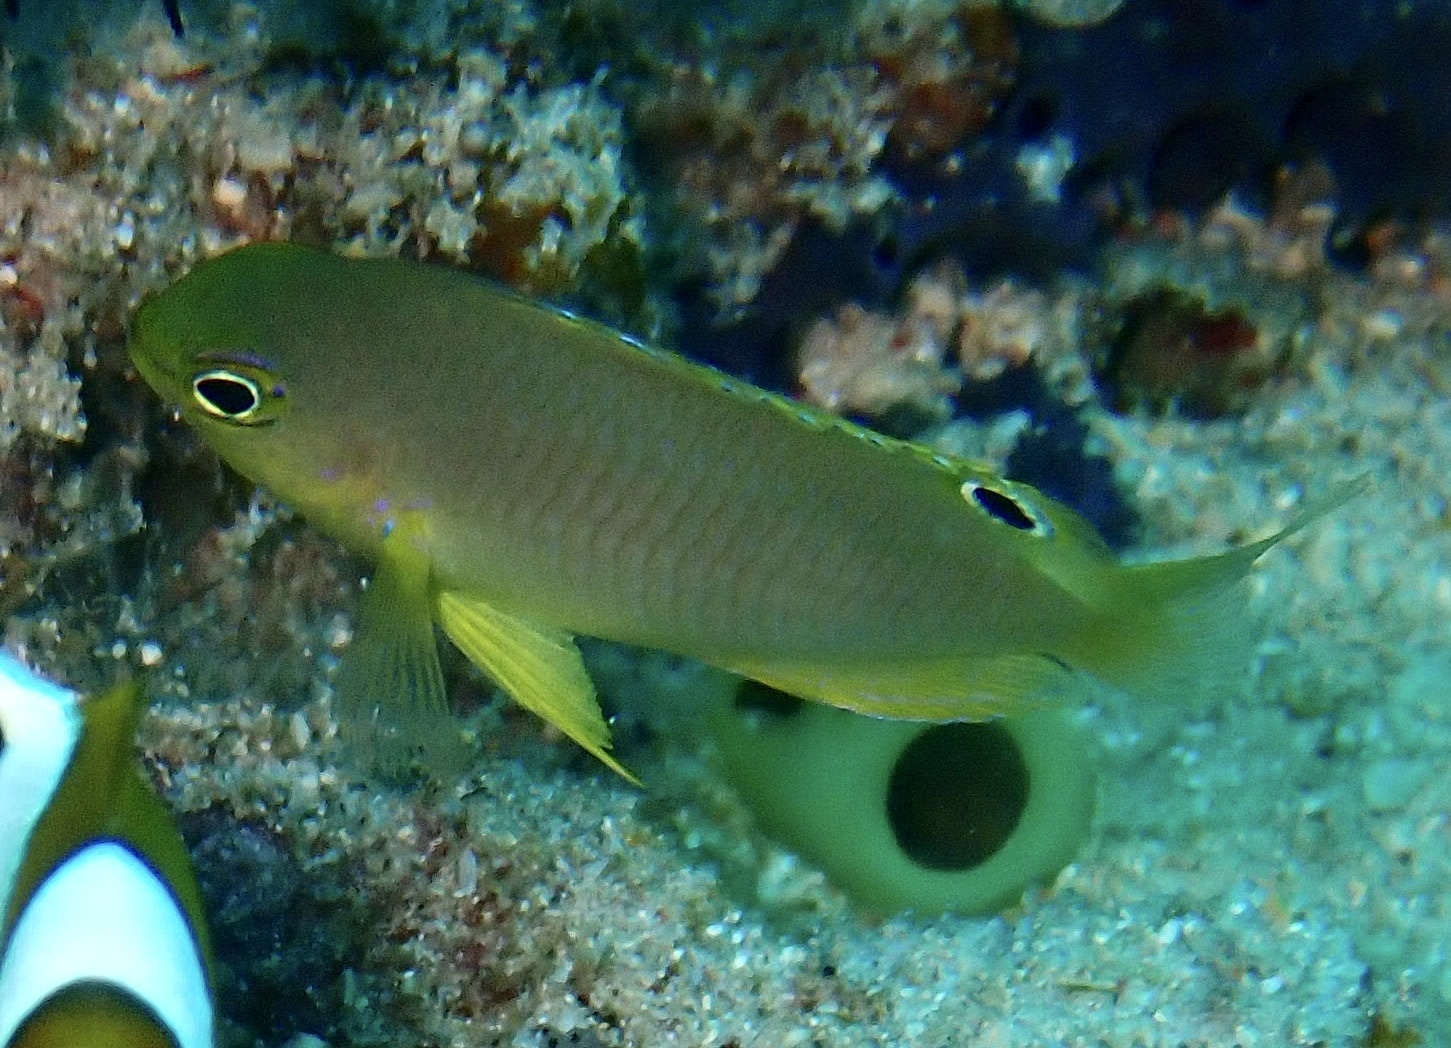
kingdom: Animalia
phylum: Chordata
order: Perciformes
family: Pomacentridae
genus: Pomacentrus
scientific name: Pomacentrus amboinensis
